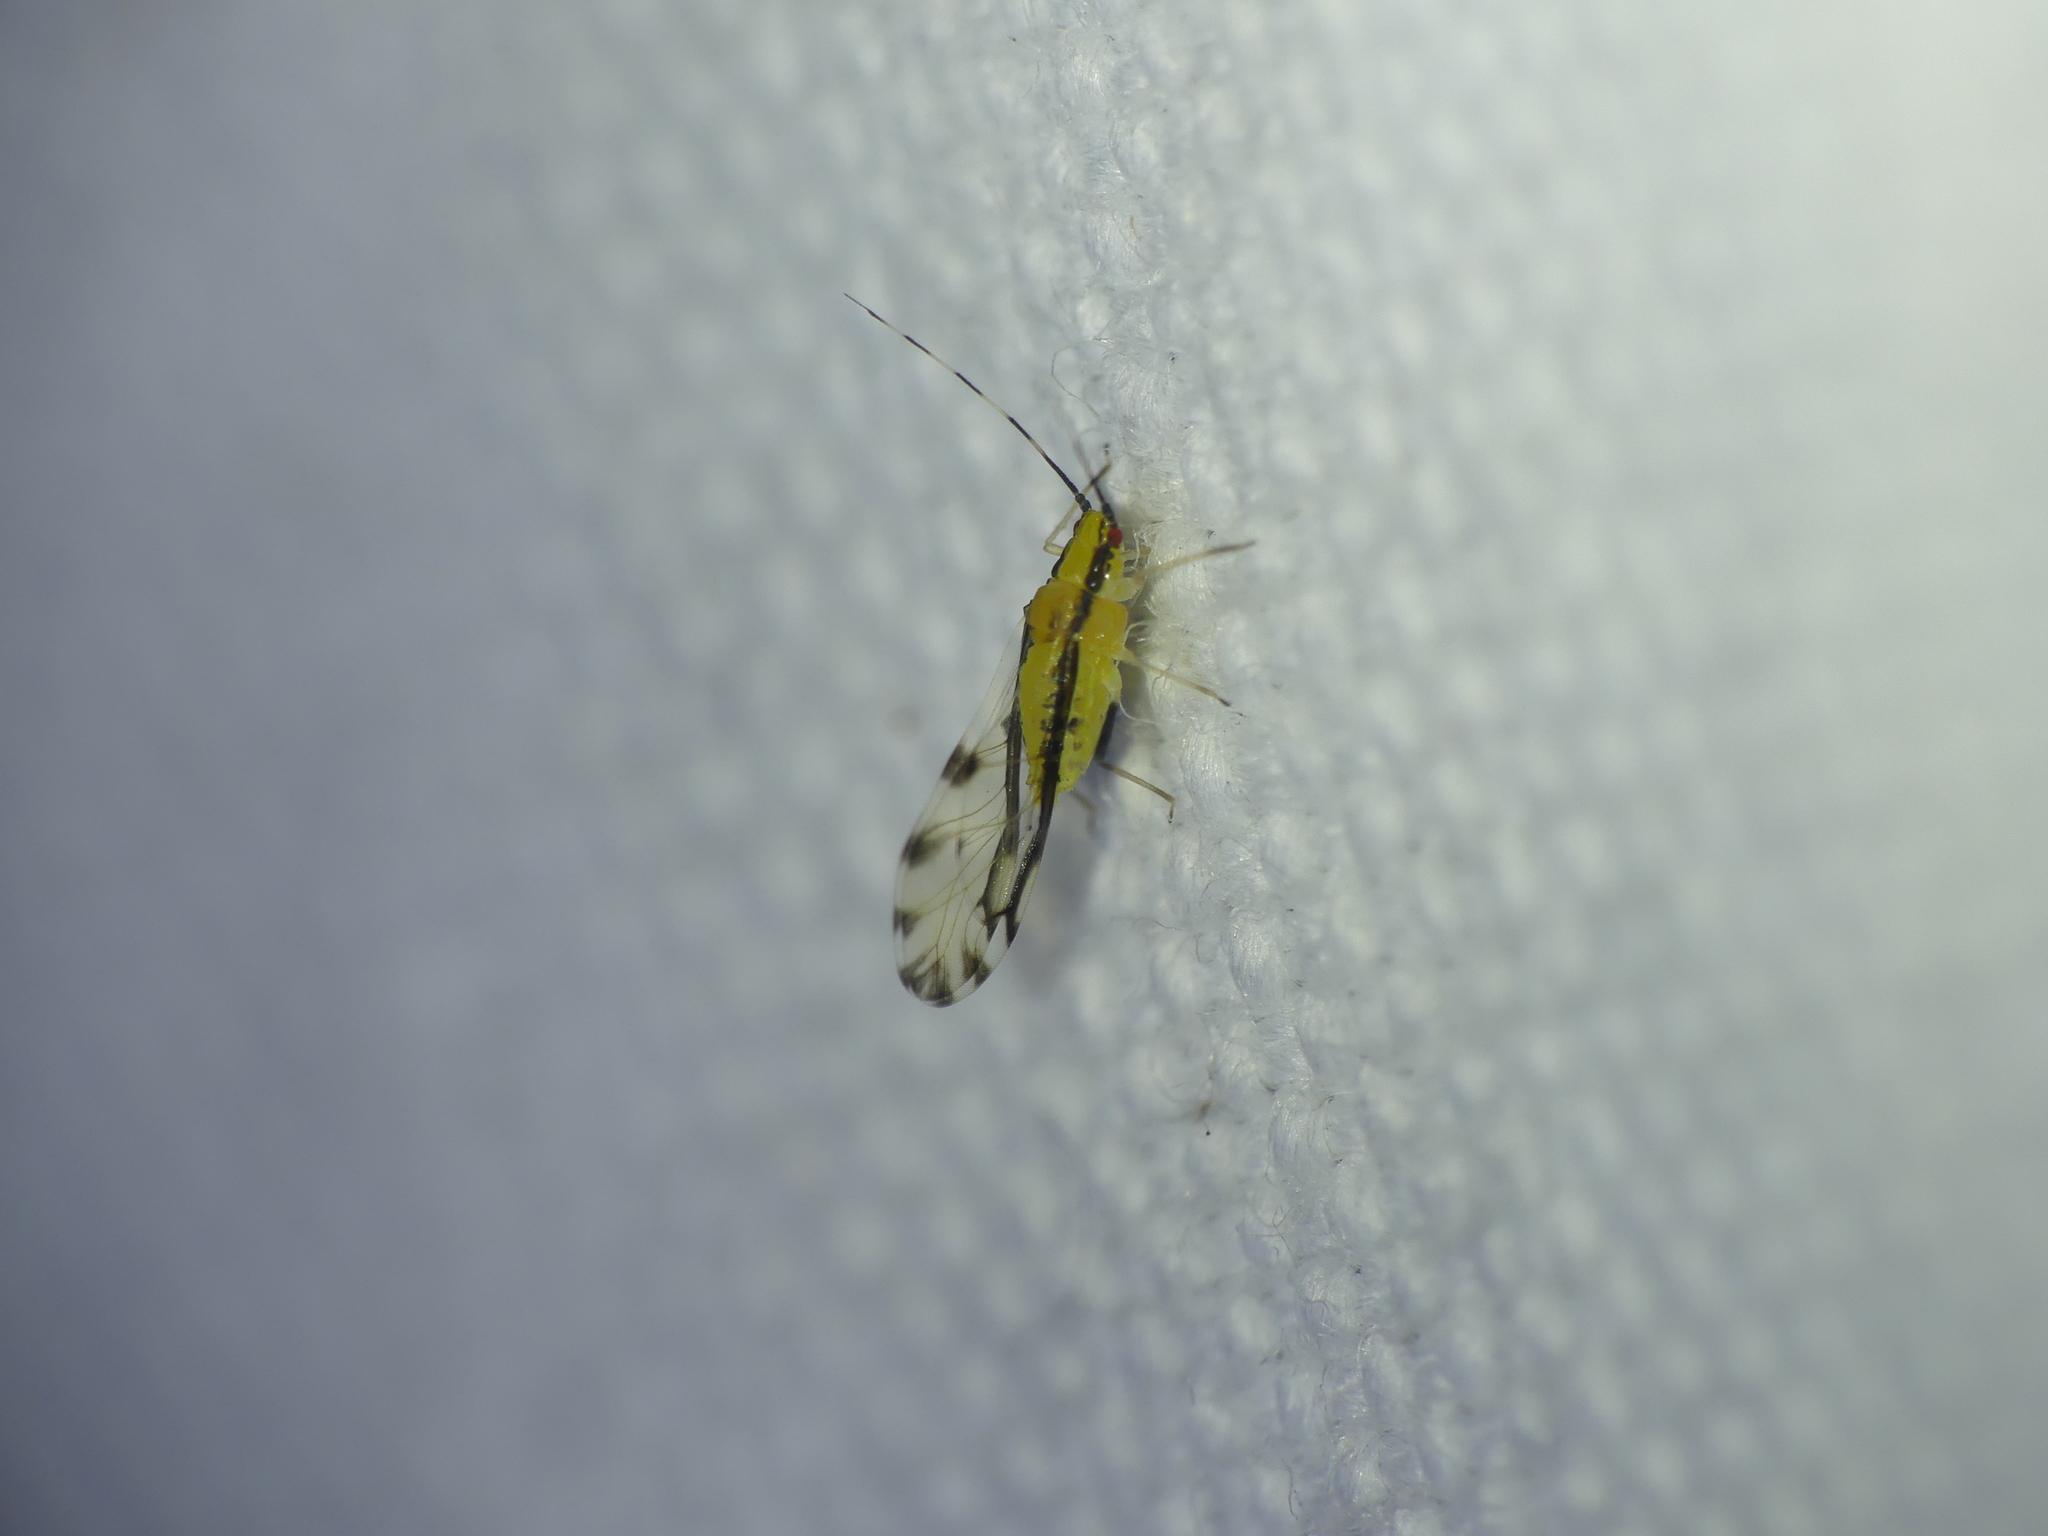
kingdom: Animalia
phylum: Arthropoda
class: Insecta
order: Hemiptera
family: Aphididae
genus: Eucallipterus
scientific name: Eucallipterus tiliae
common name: Aphid
